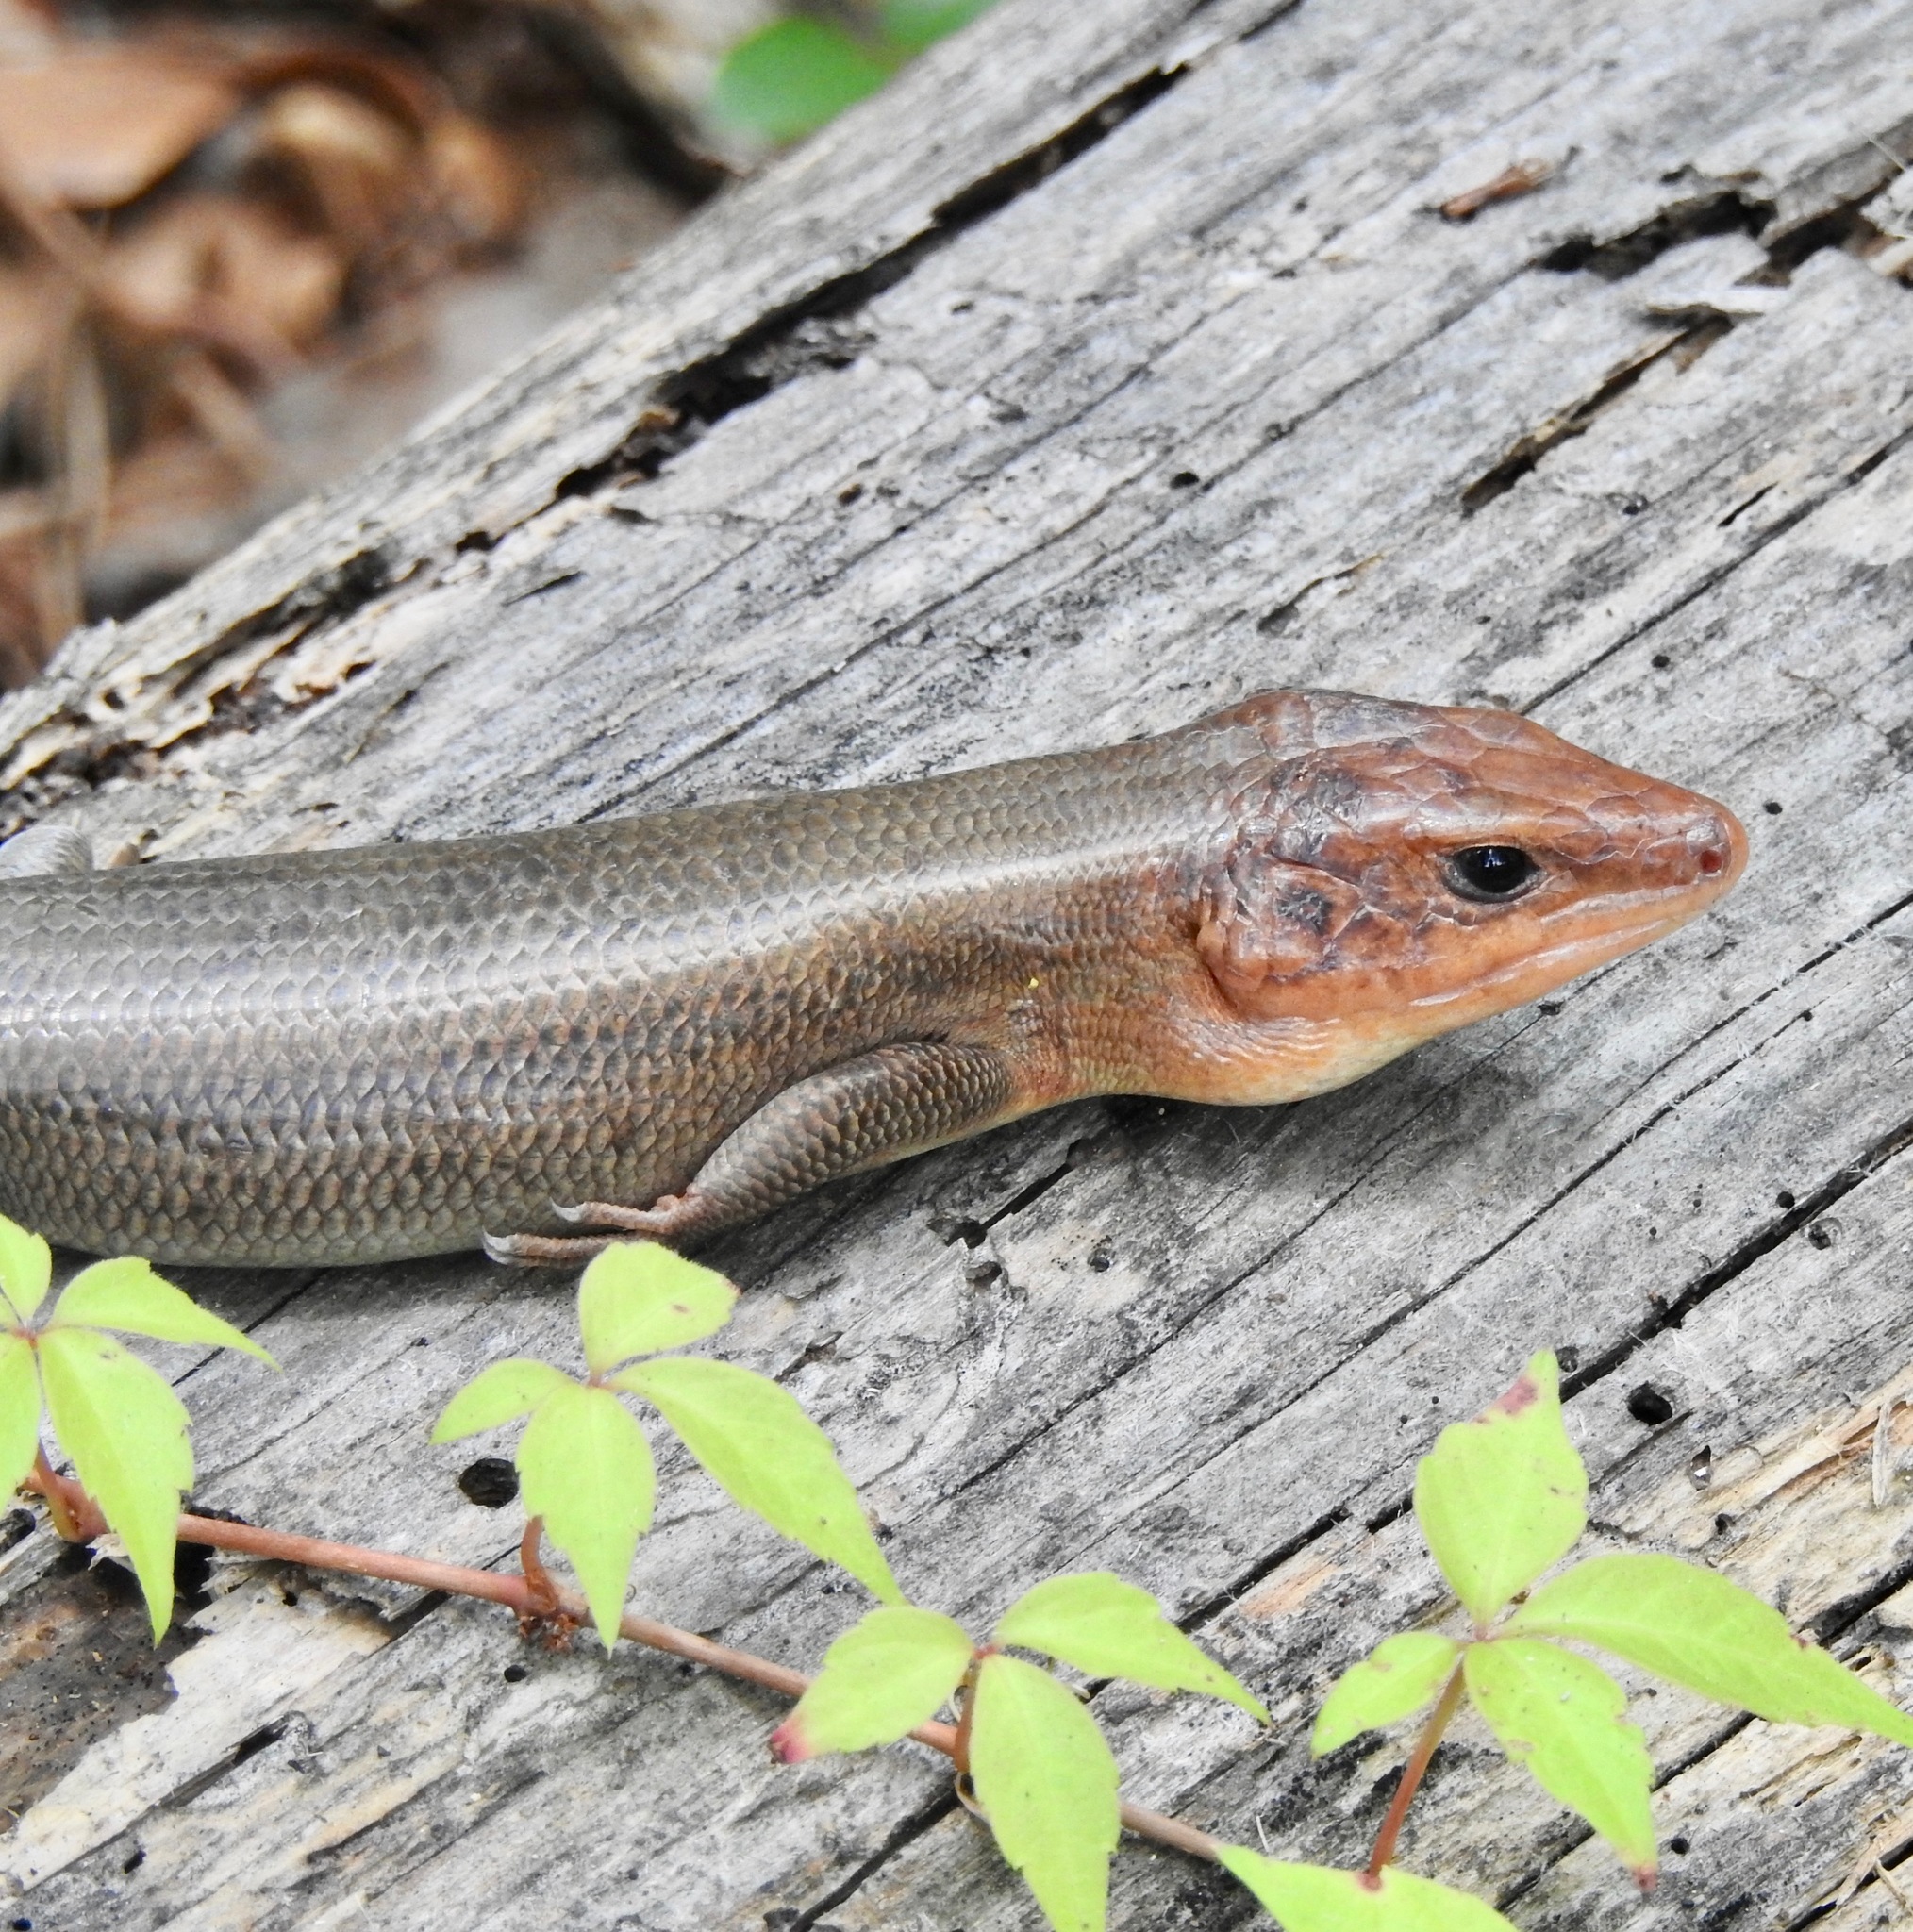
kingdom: Animalia
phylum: Chordata
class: Squamata
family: Scincidae
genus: Plestiodon
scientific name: Plestiodon laticeps
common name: Broadhead skink
